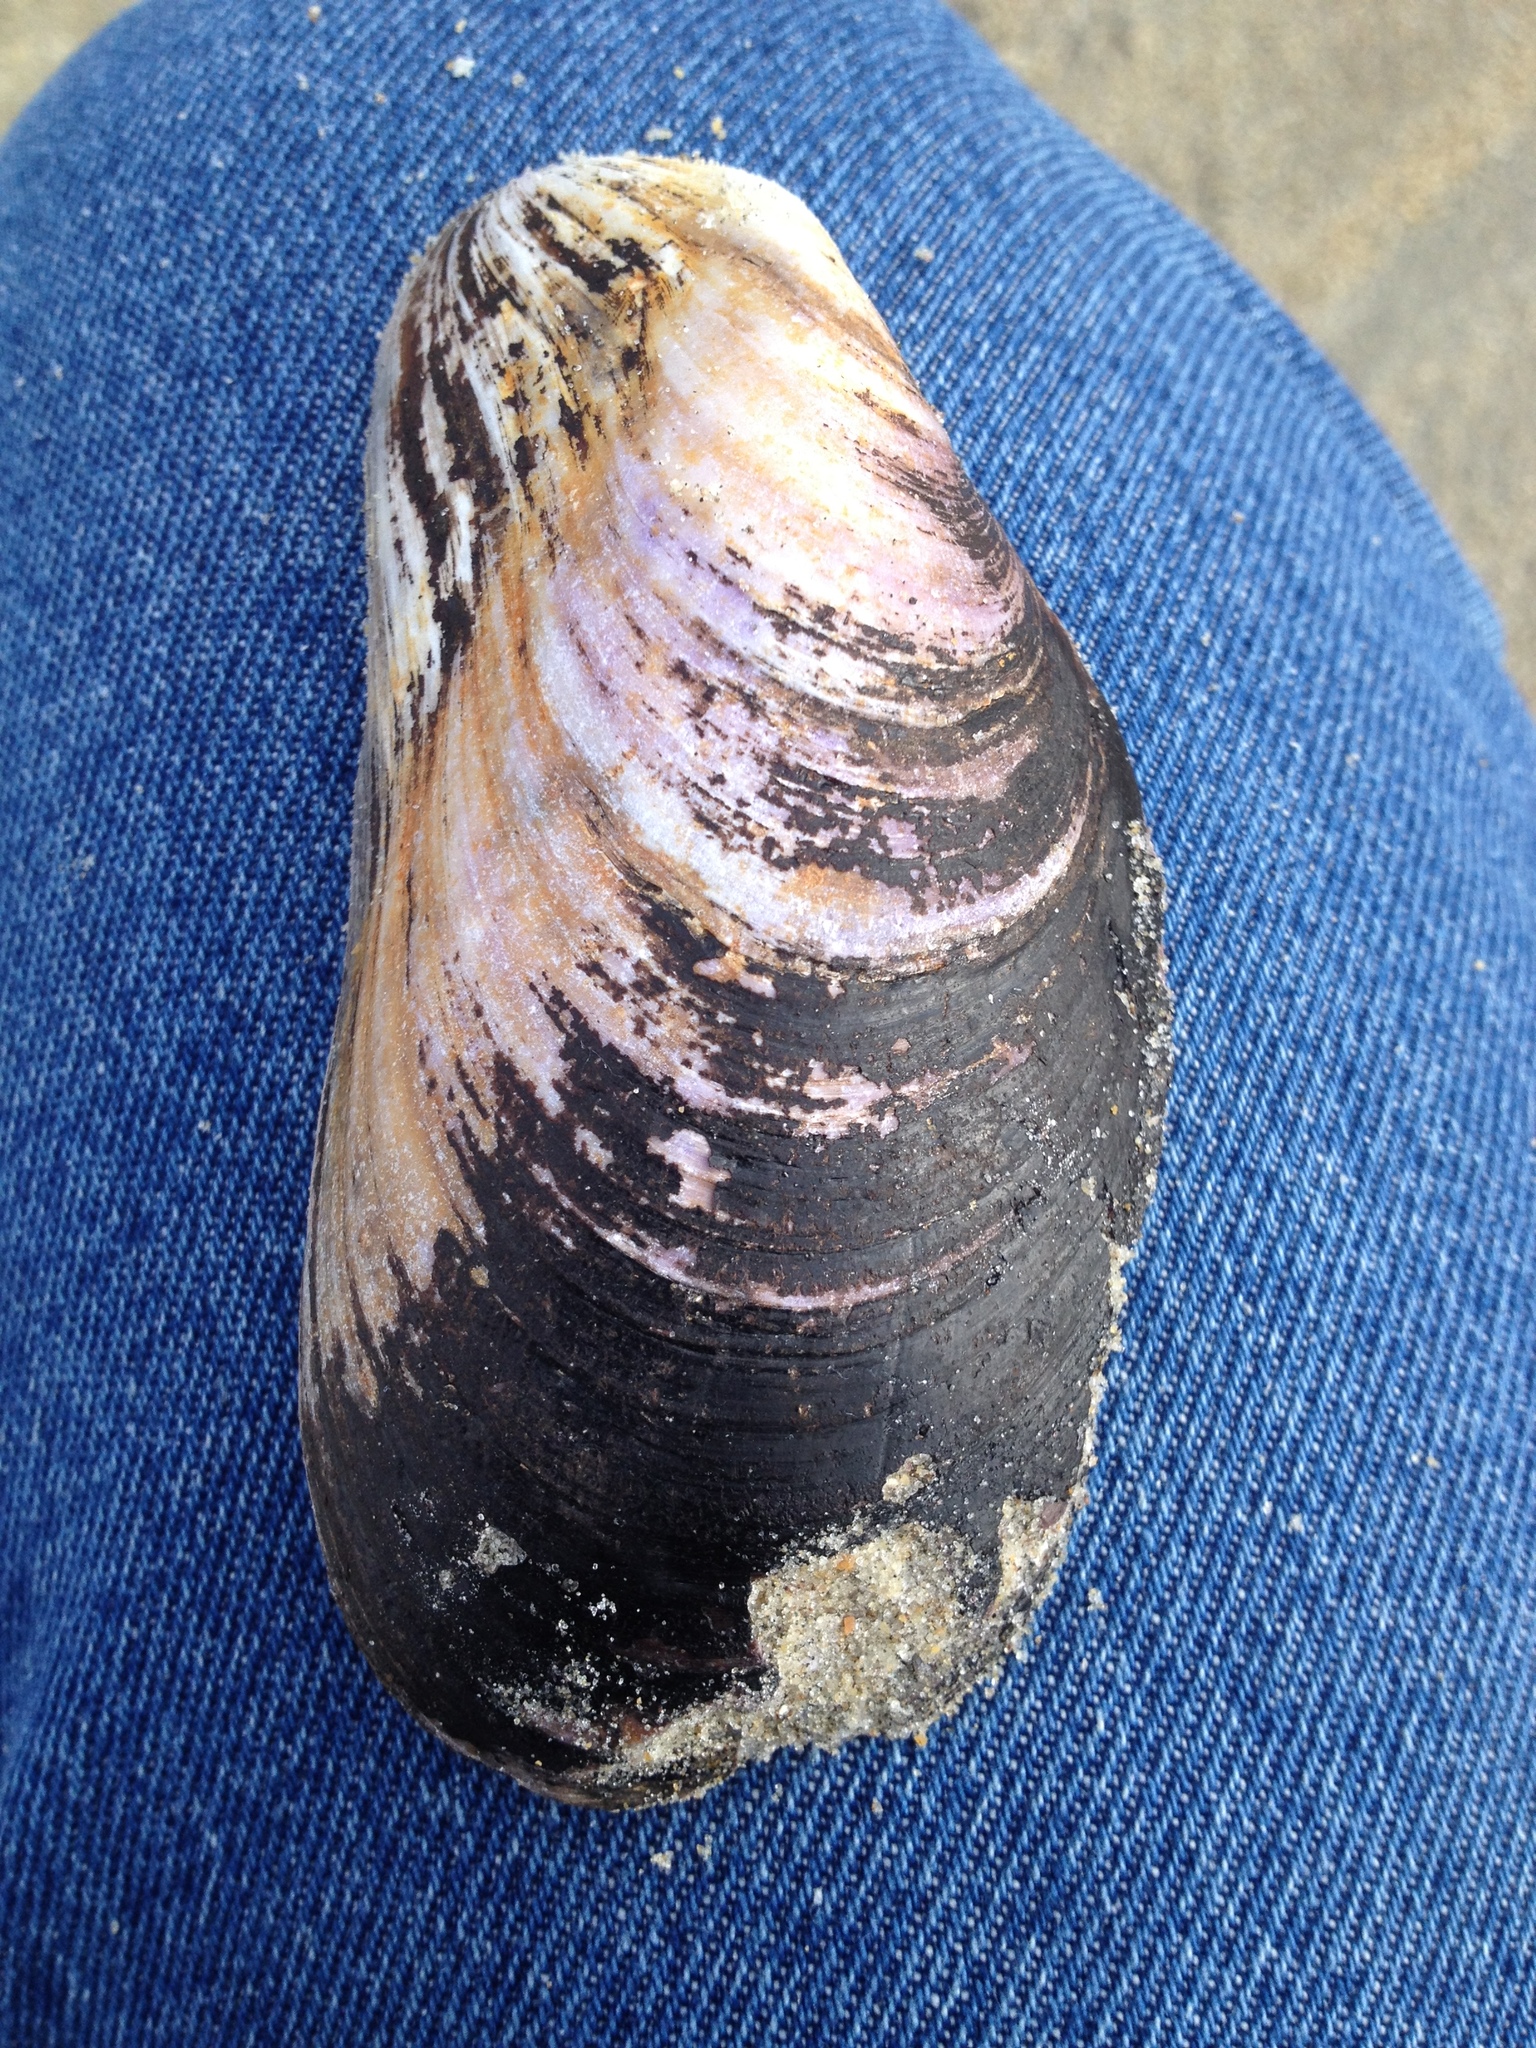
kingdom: Animalia
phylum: Mollusca
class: Bivalvia
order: Mytilida
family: Mytilidae
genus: Modiolus
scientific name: Modiolus modiolus
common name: Horse-mussel
